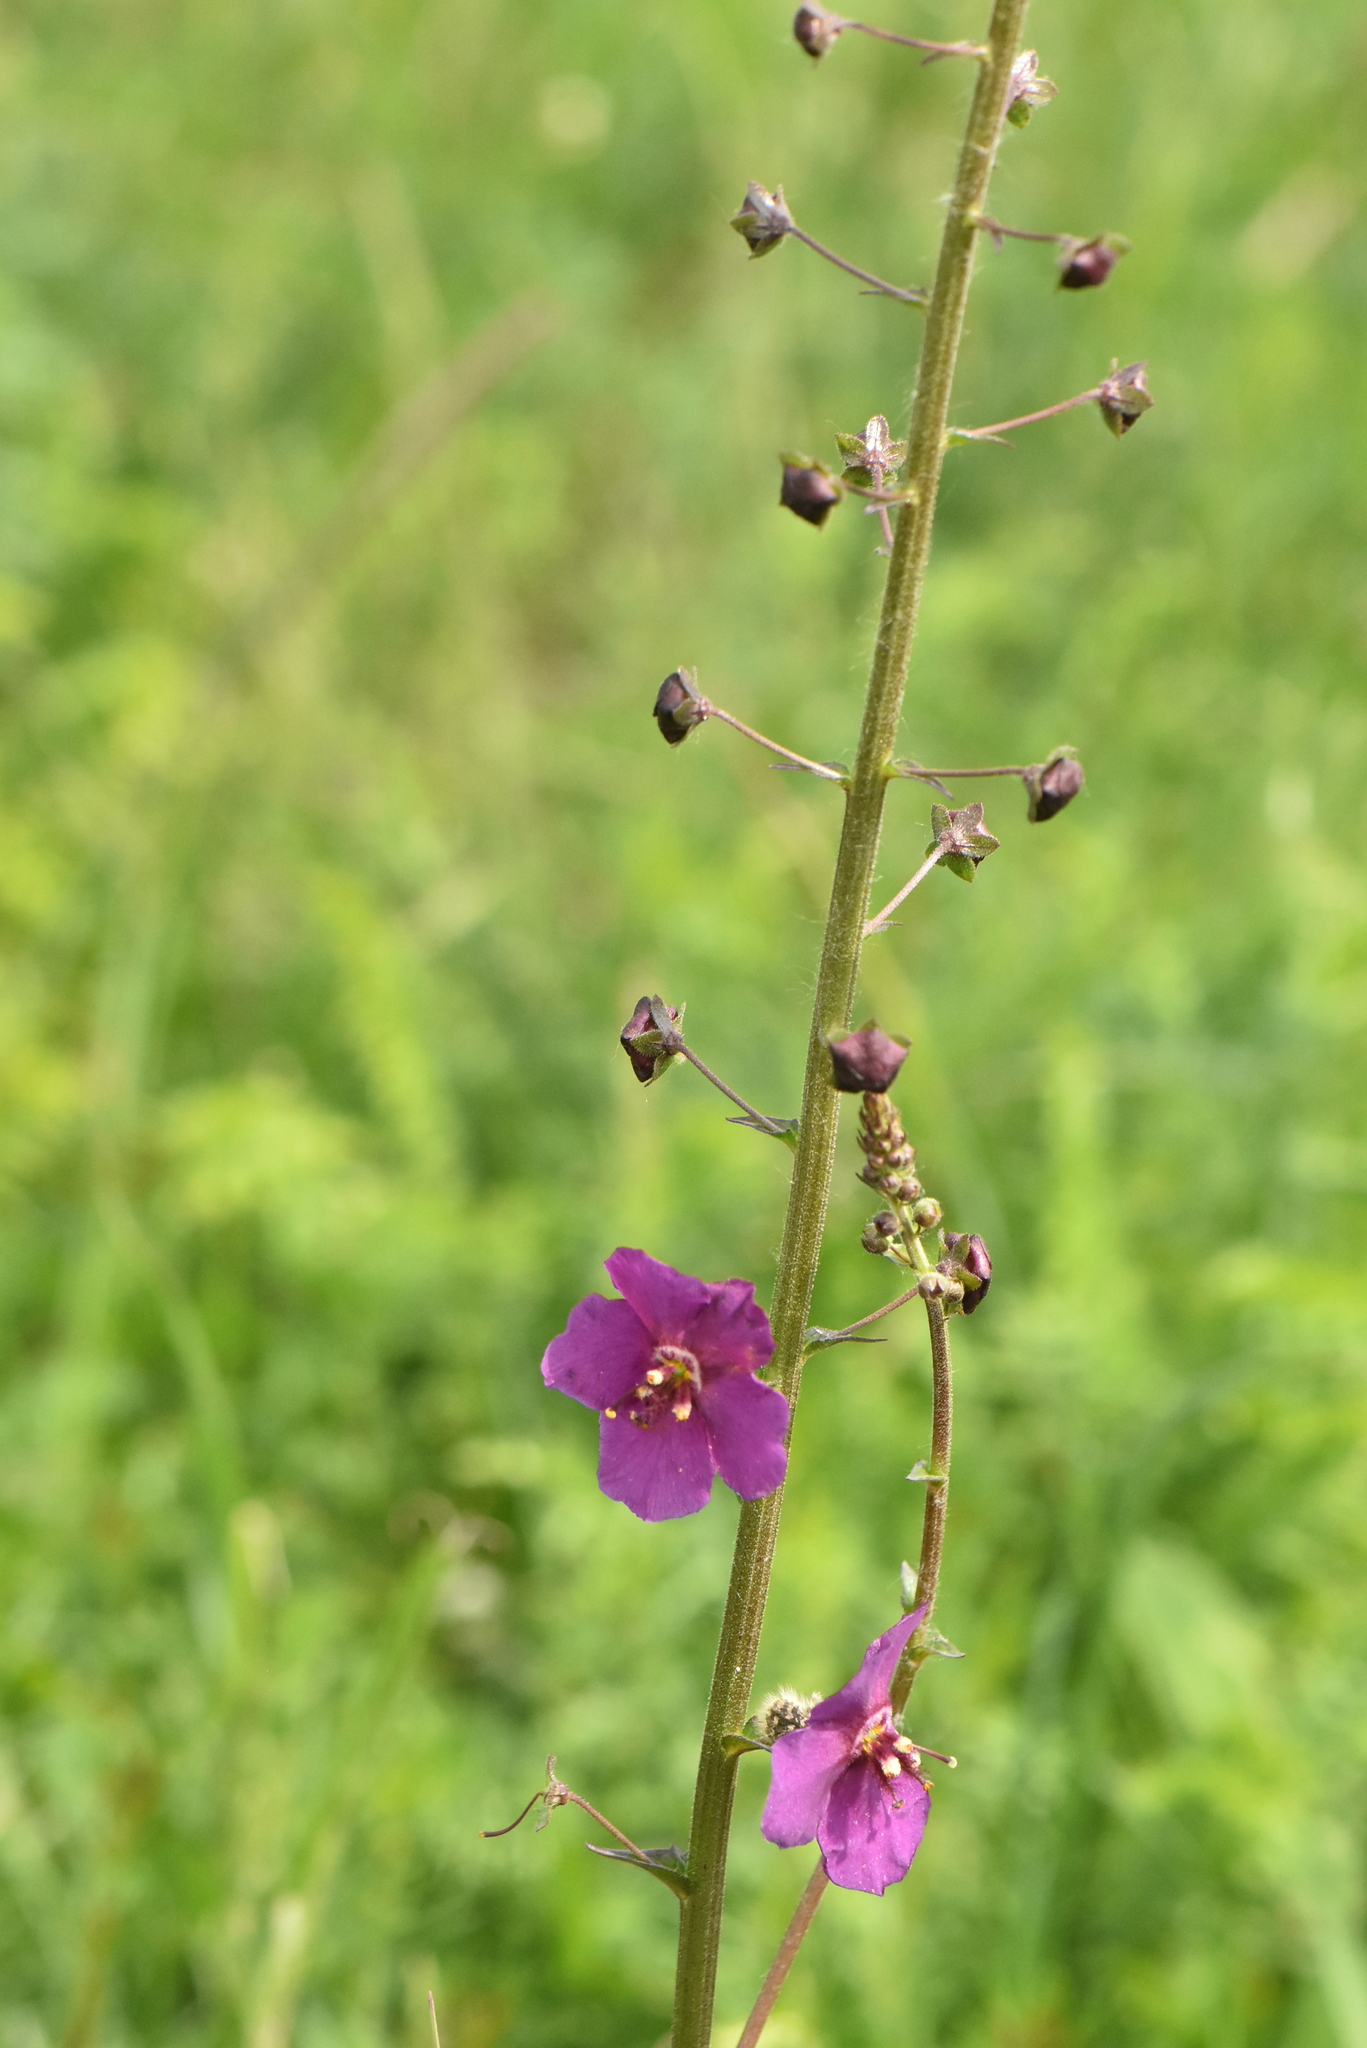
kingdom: Plantae
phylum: Tracheophyta
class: Magnoliopsida
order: Lamiales
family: Scrophulariaceae
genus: Verbascum
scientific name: Verbascum phoeniceum
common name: Purple mullein
